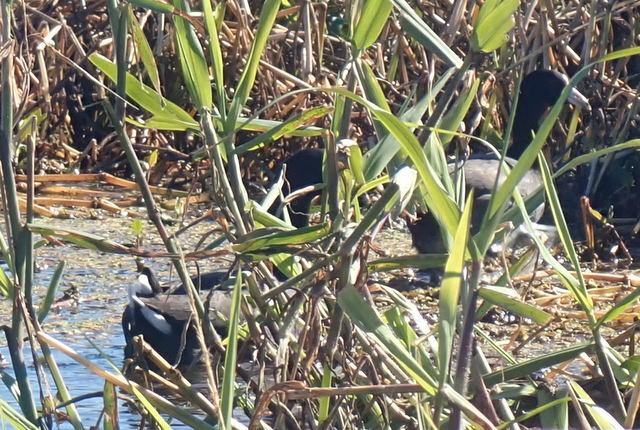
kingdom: Animalia
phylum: Chordata
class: Aves
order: Gruiformes
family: Rallidae
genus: Fulica
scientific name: Fulica americana
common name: American coot
